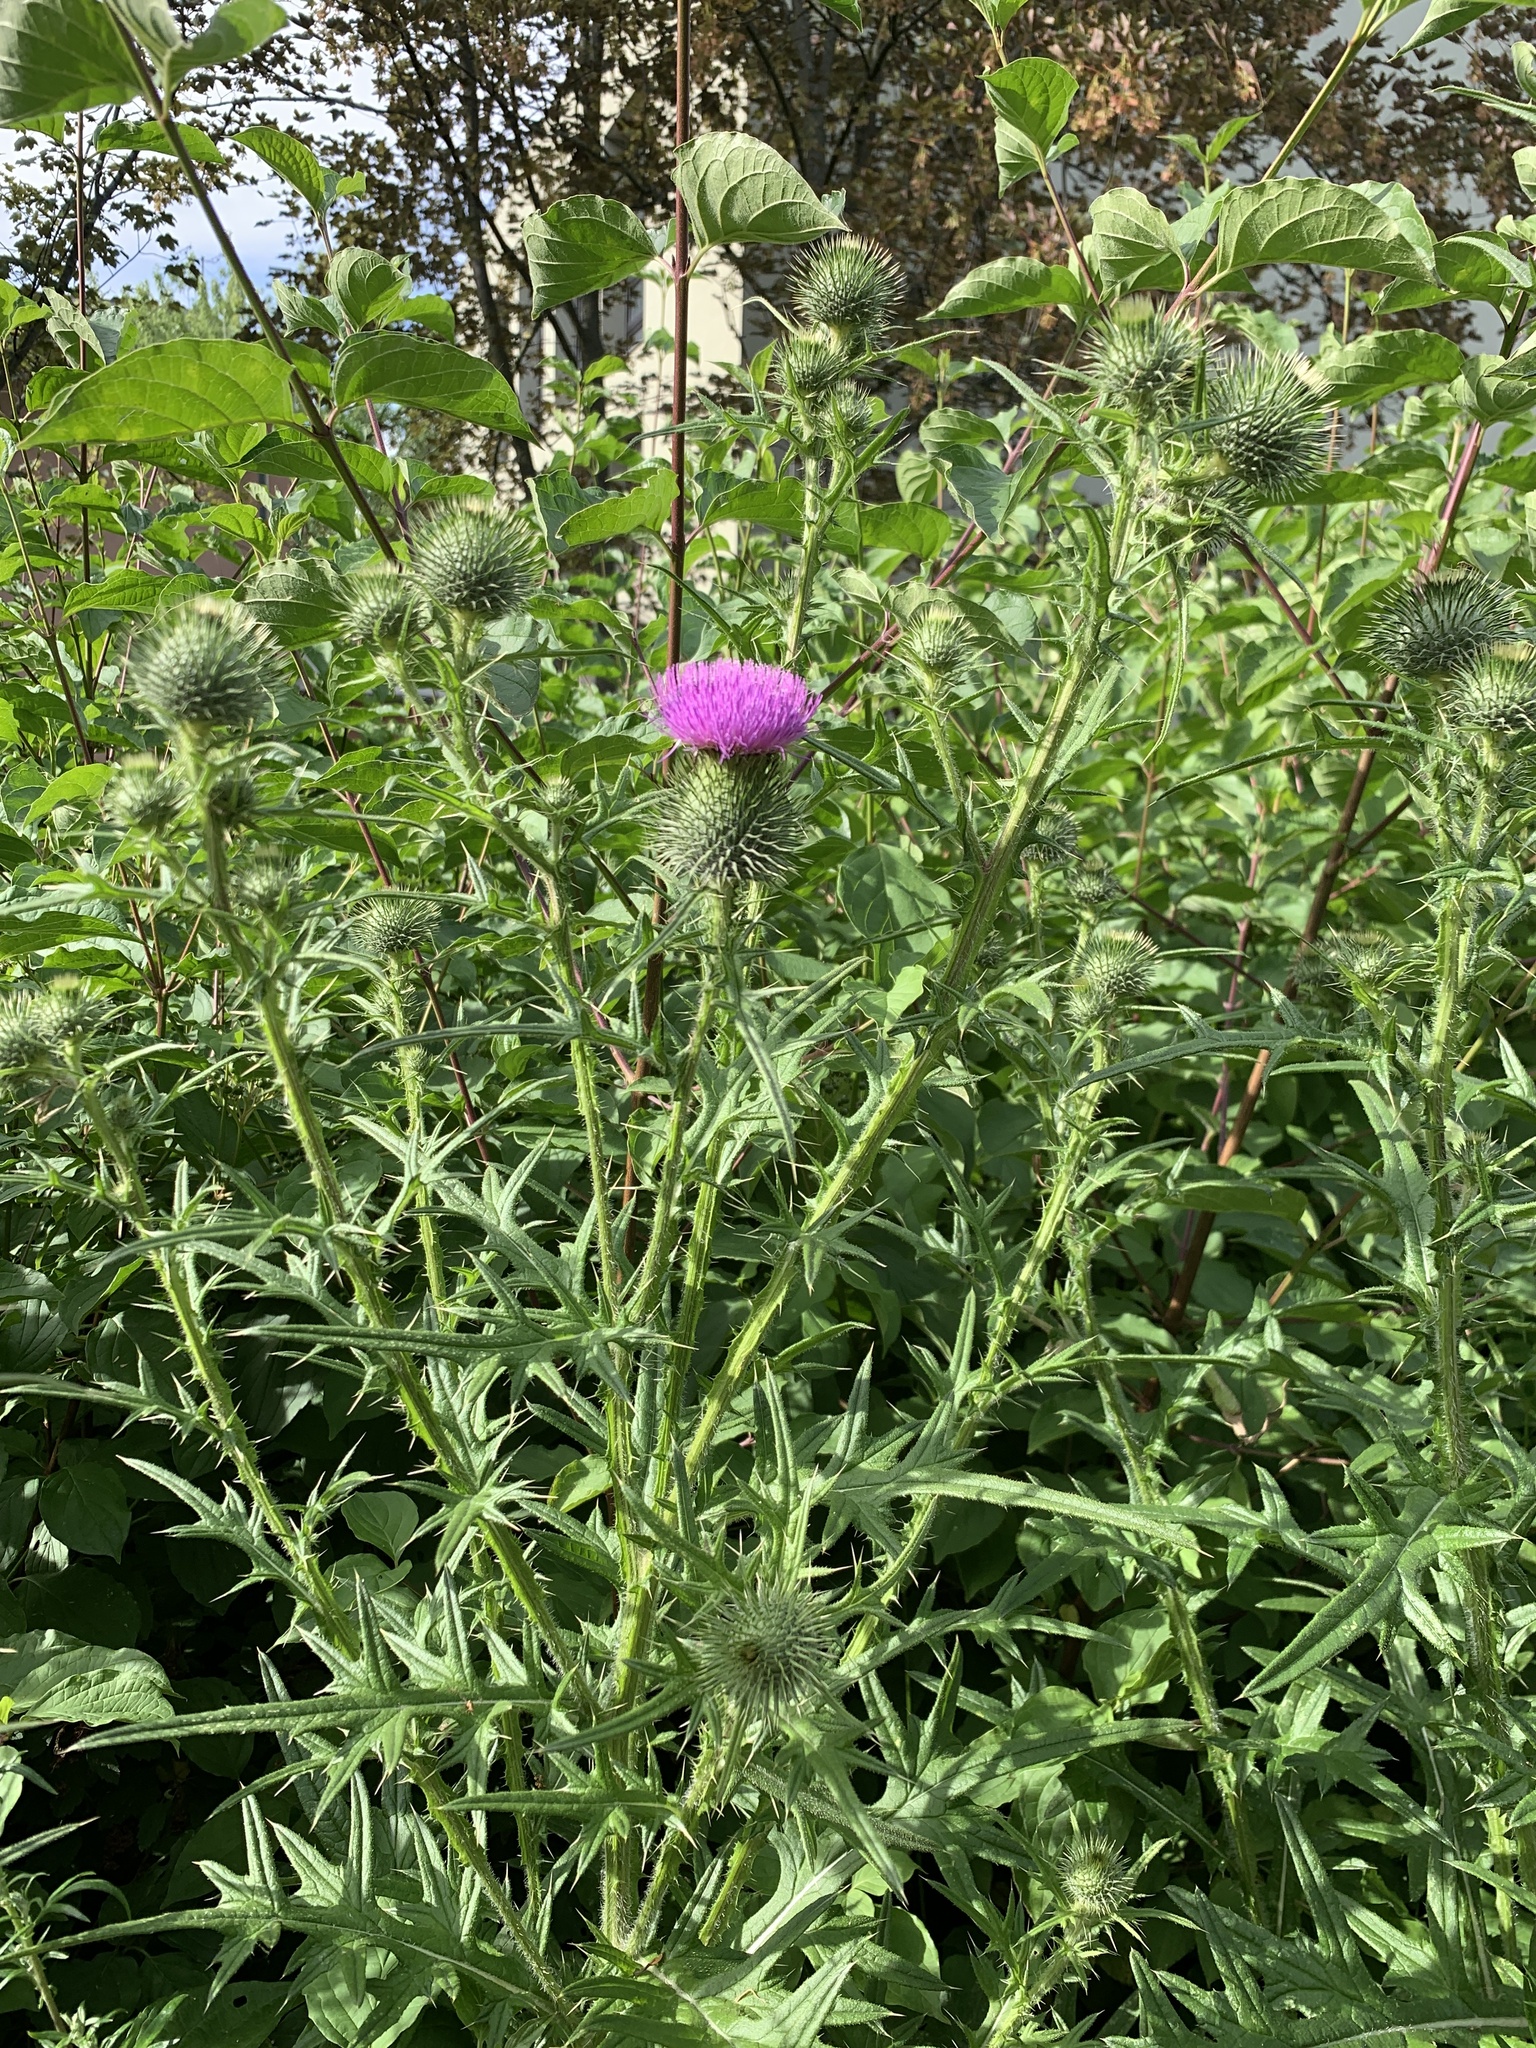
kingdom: Plantae
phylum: Tracheophyta
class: Magnoliopsida
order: Asterales
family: Asteraceae
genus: Cirsium
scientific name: Cirsium vulgare
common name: Bull thistle
